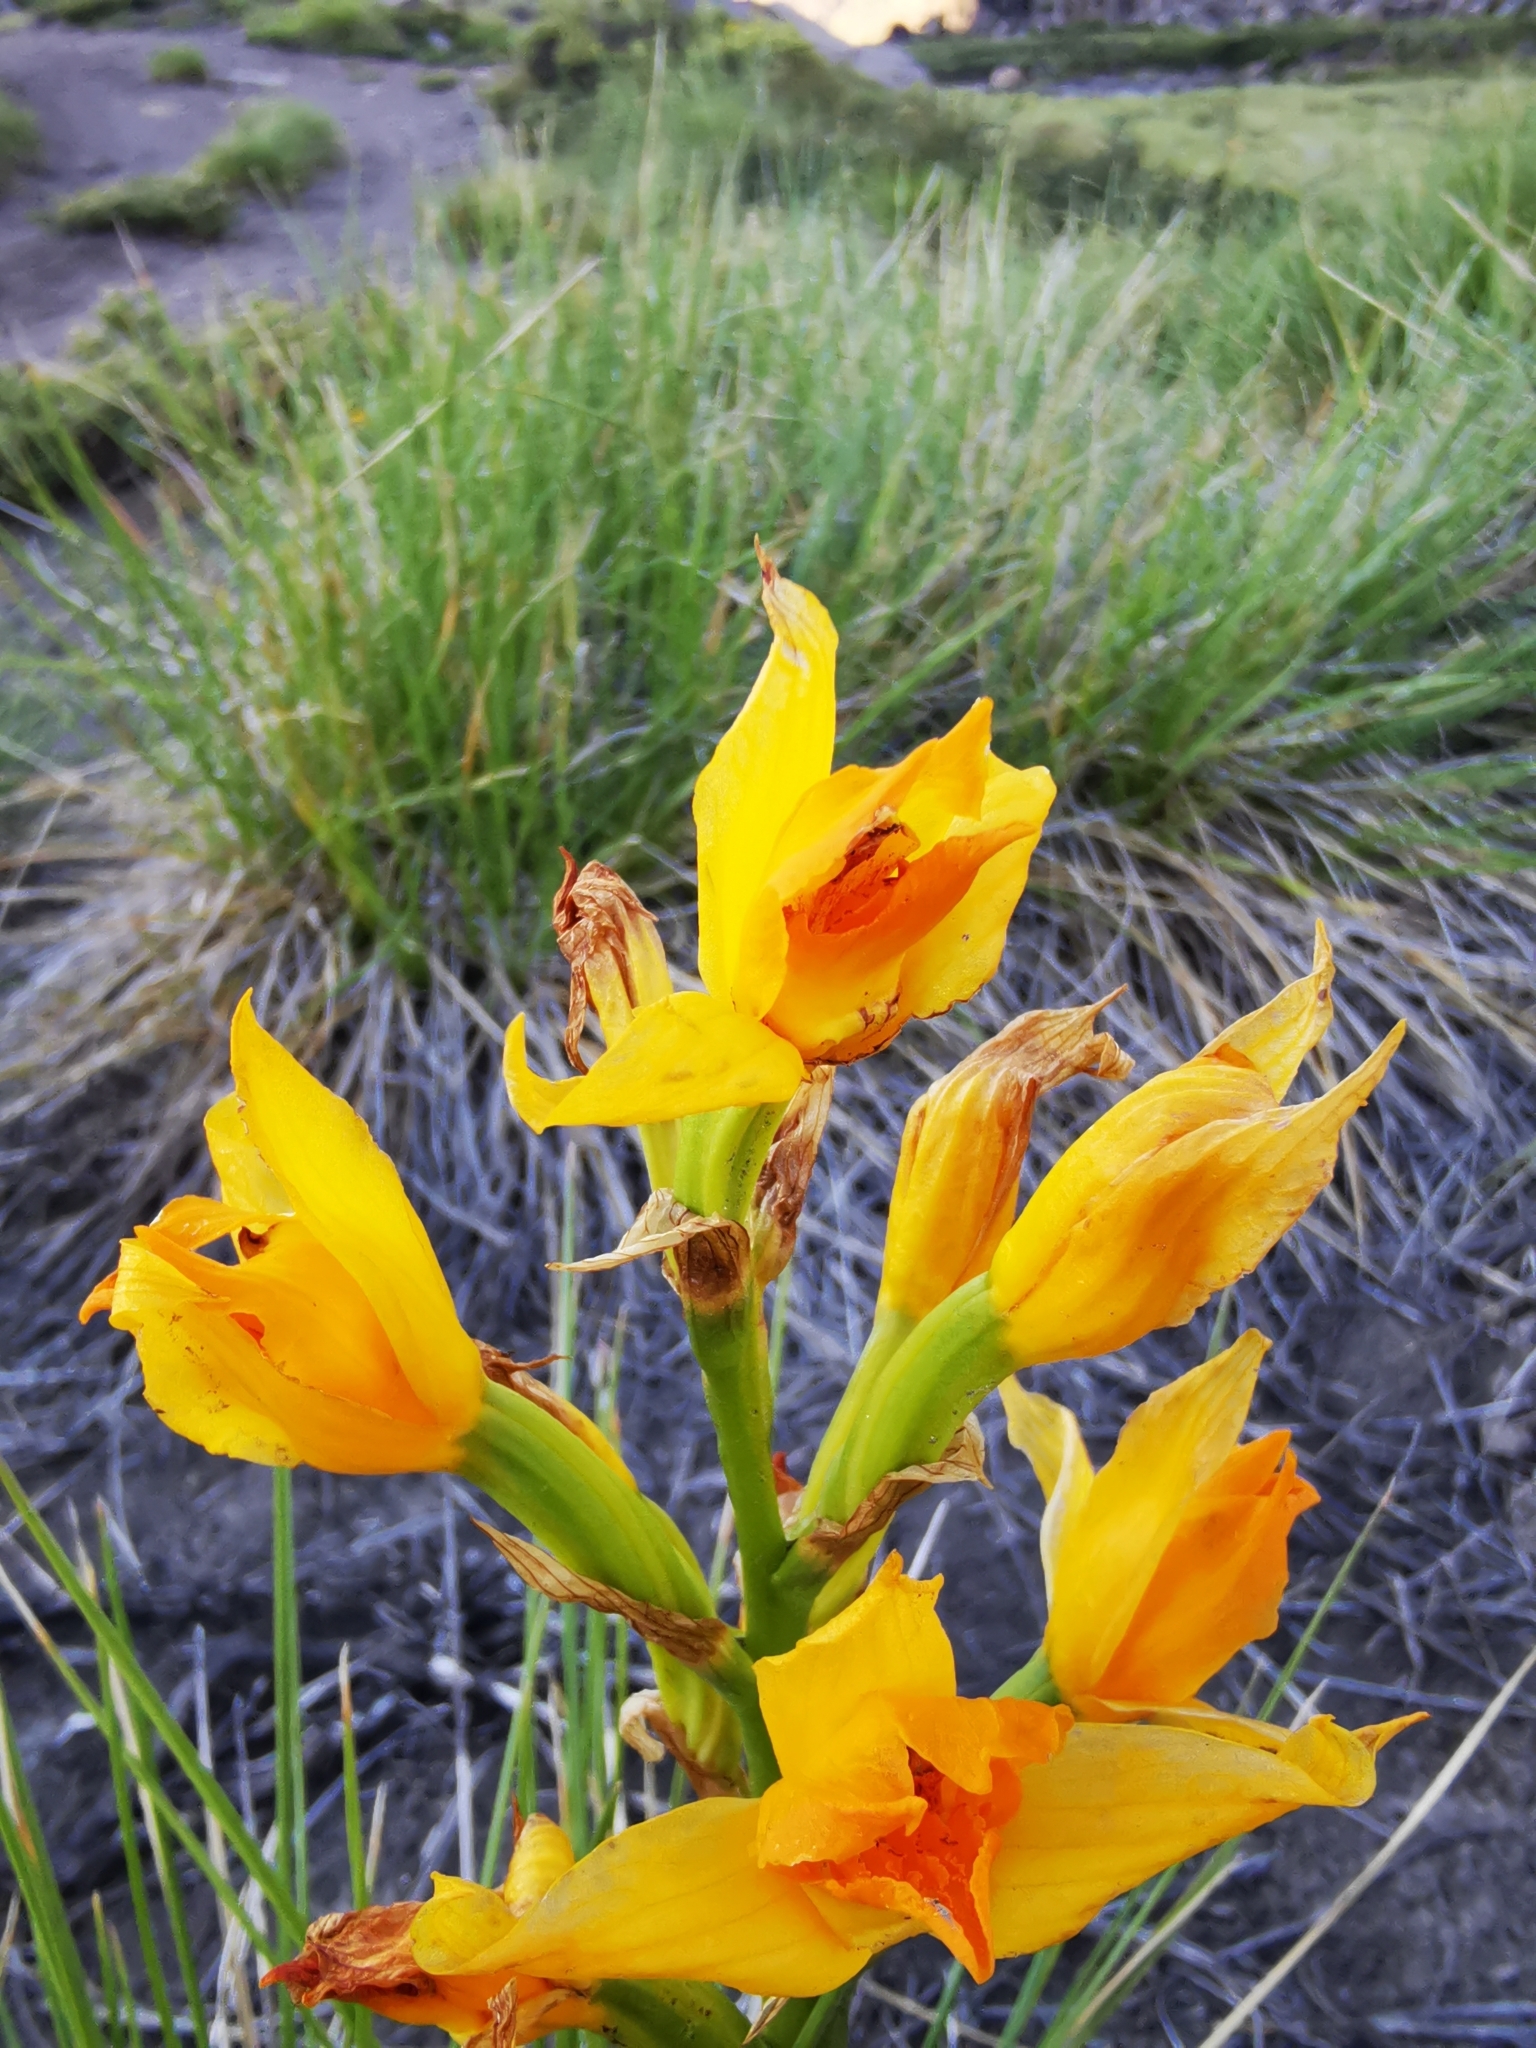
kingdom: Plantae
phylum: Tracheophyta
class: Liliopsida
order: Asparagales
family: Orchidaceae
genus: Chloraea
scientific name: Chloraea alpina
